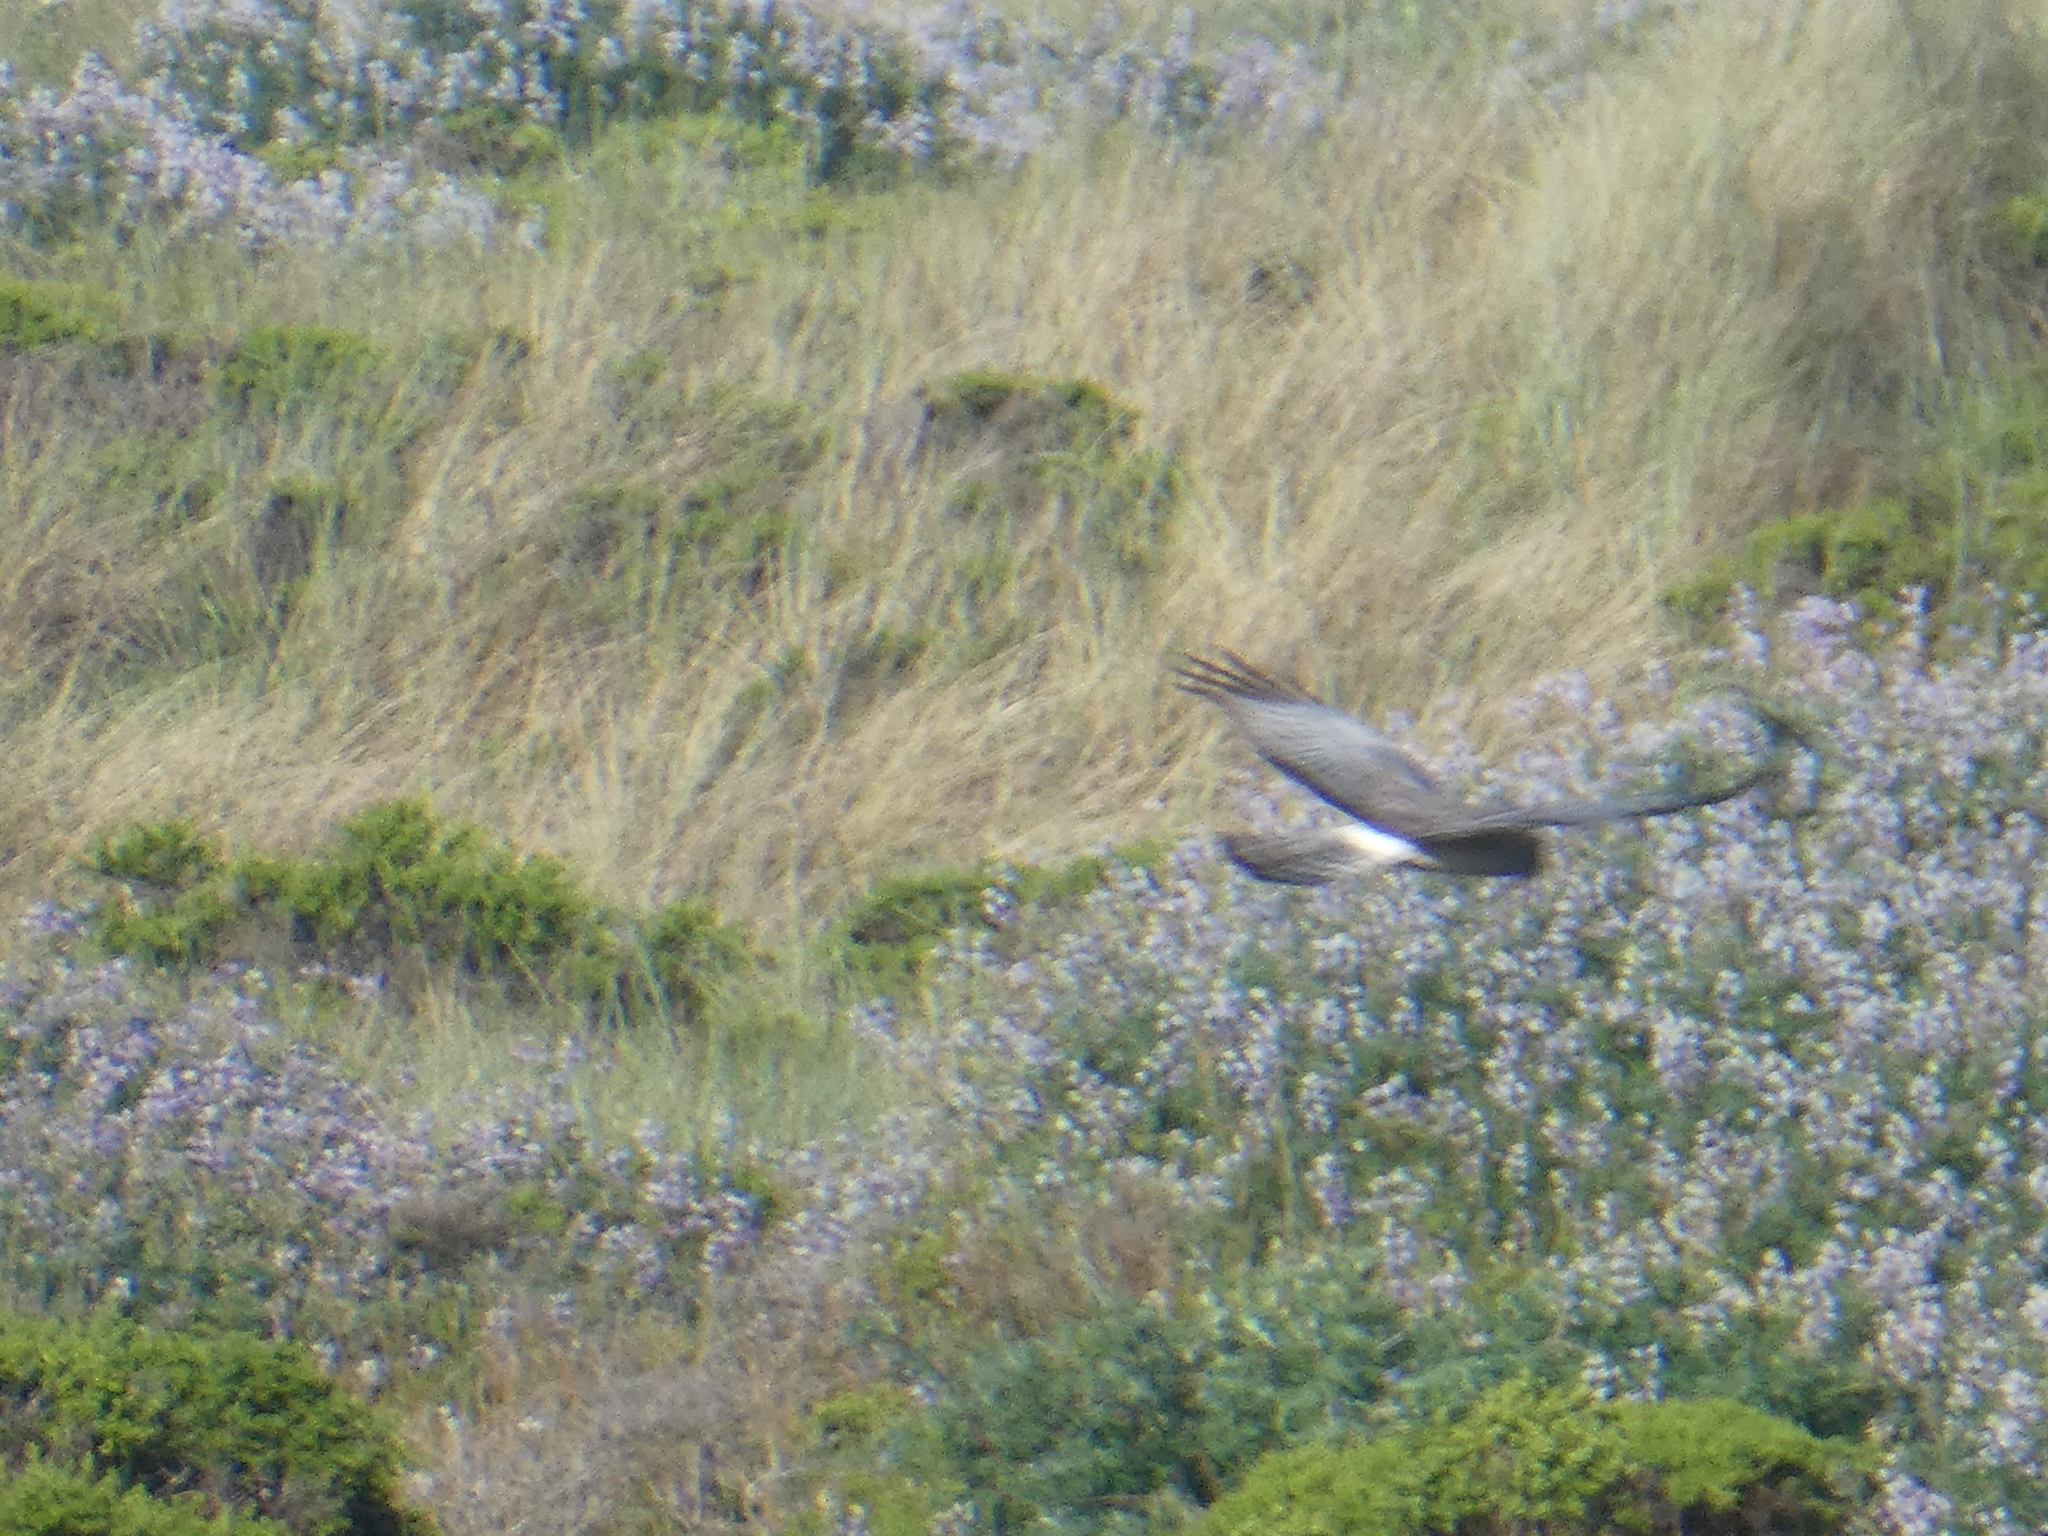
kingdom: Animalia
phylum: Chordata
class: Aves
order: Accipitriformes
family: Accipitridae
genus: Circus
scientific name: Circus cyaneus
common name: Hen harrier
